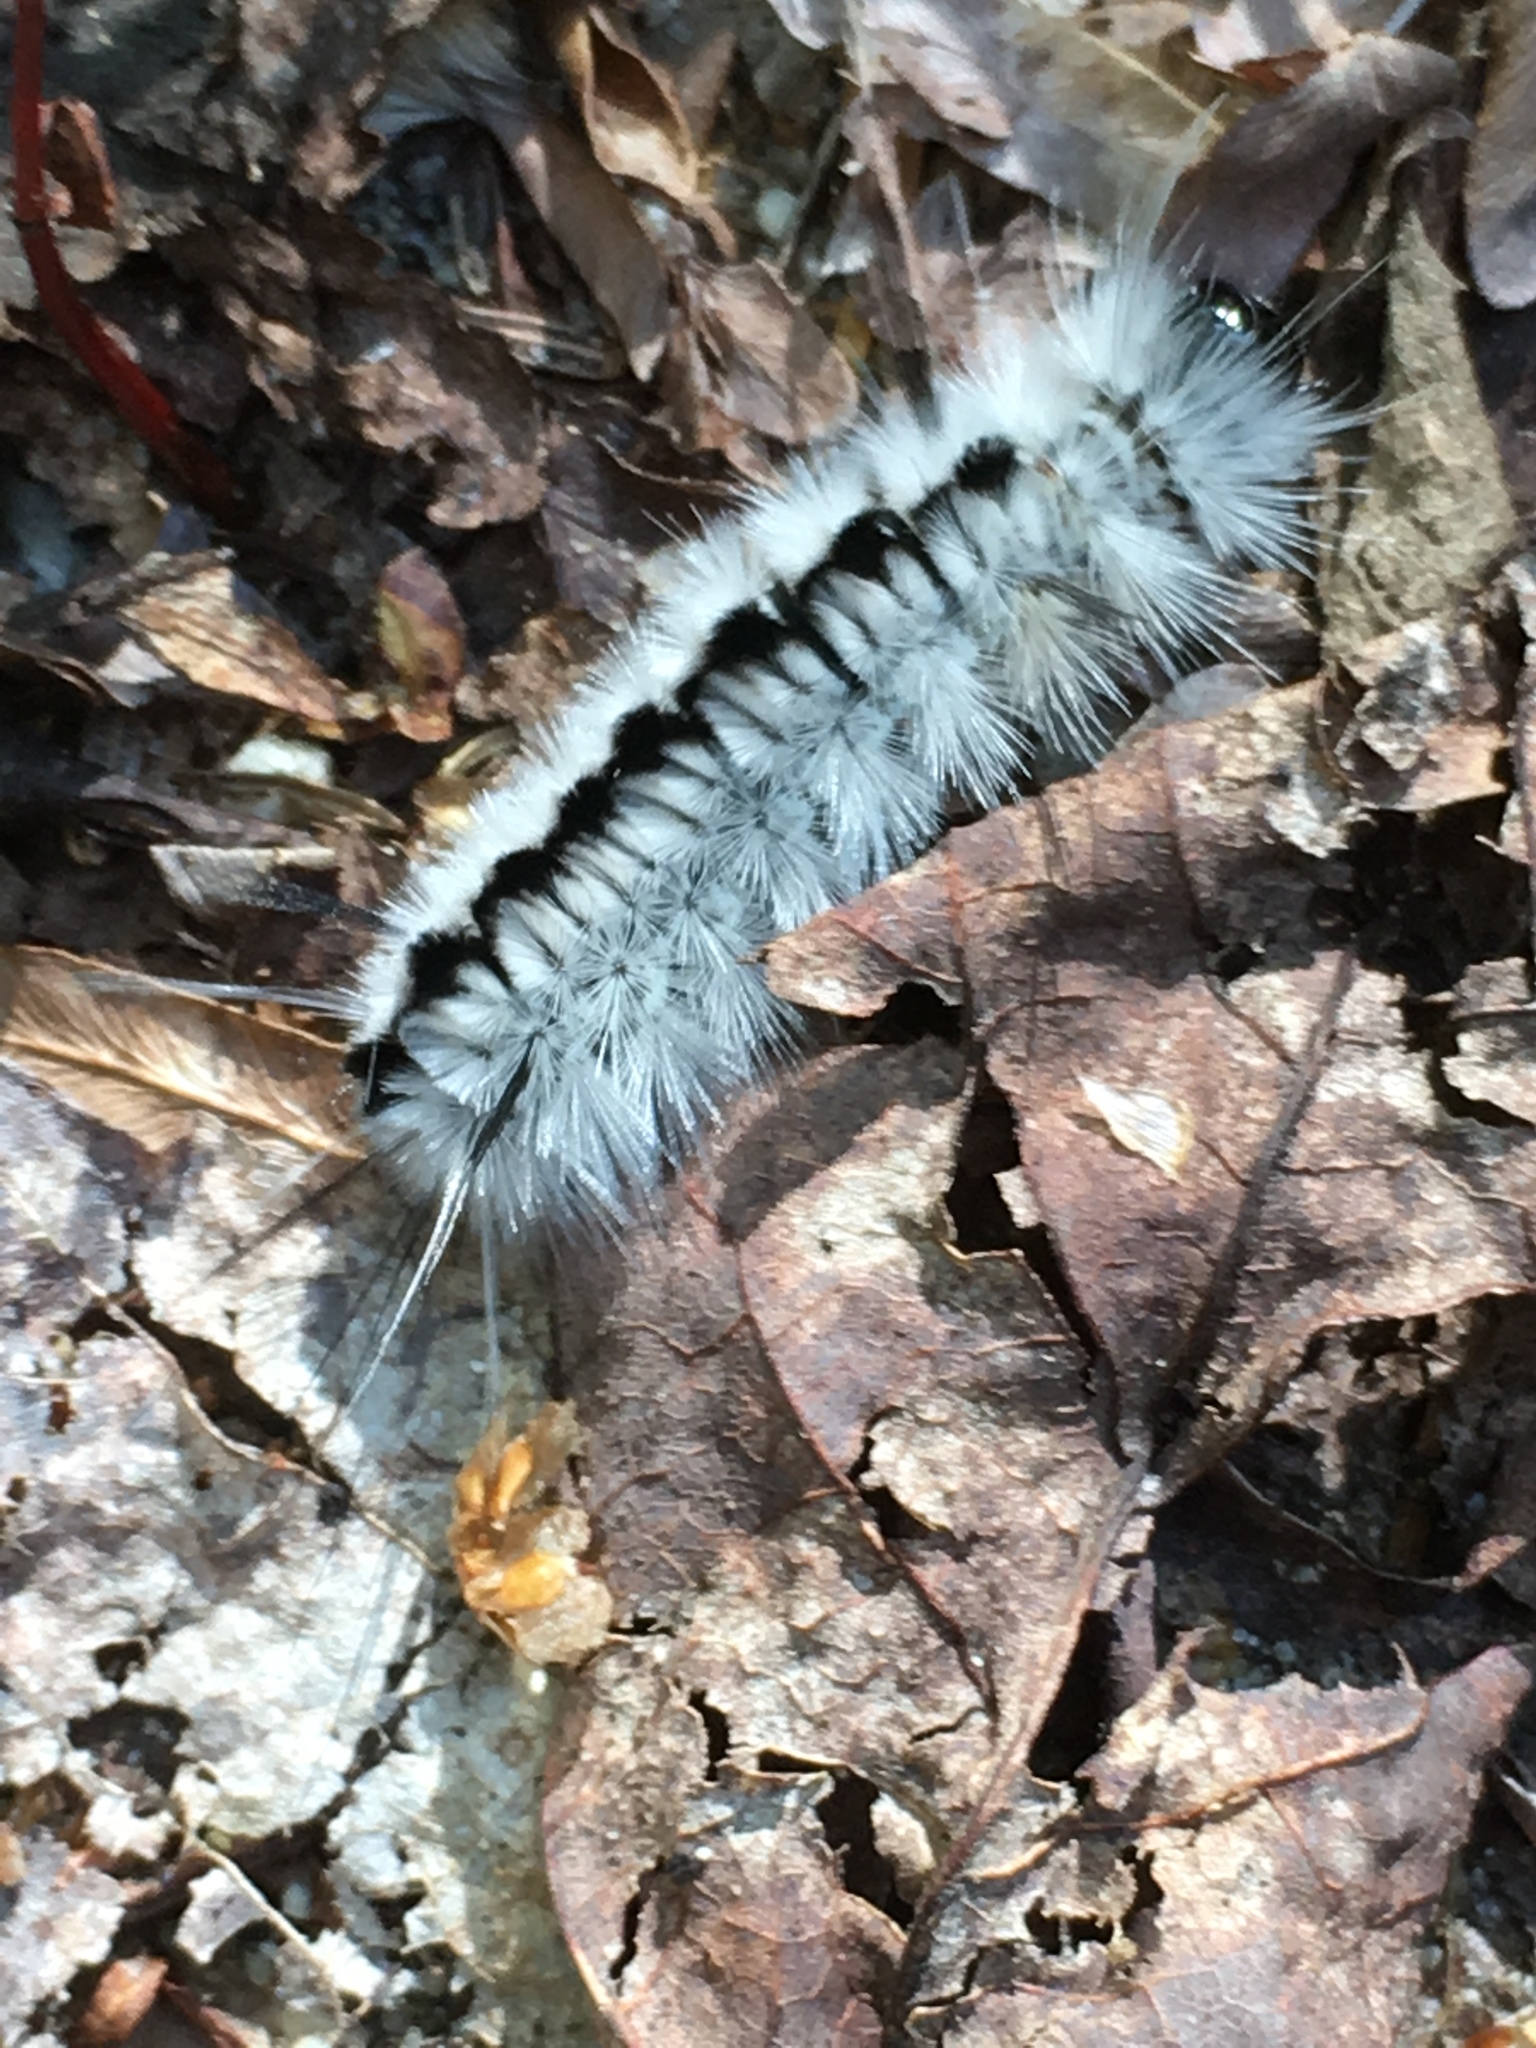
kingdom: Animalia
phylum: Arthropoda
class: Insecta
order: Lepidoptera
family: Erebidae
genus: Lophocampa
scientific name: Lophocampa caryae
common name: Hickory tussock moth
